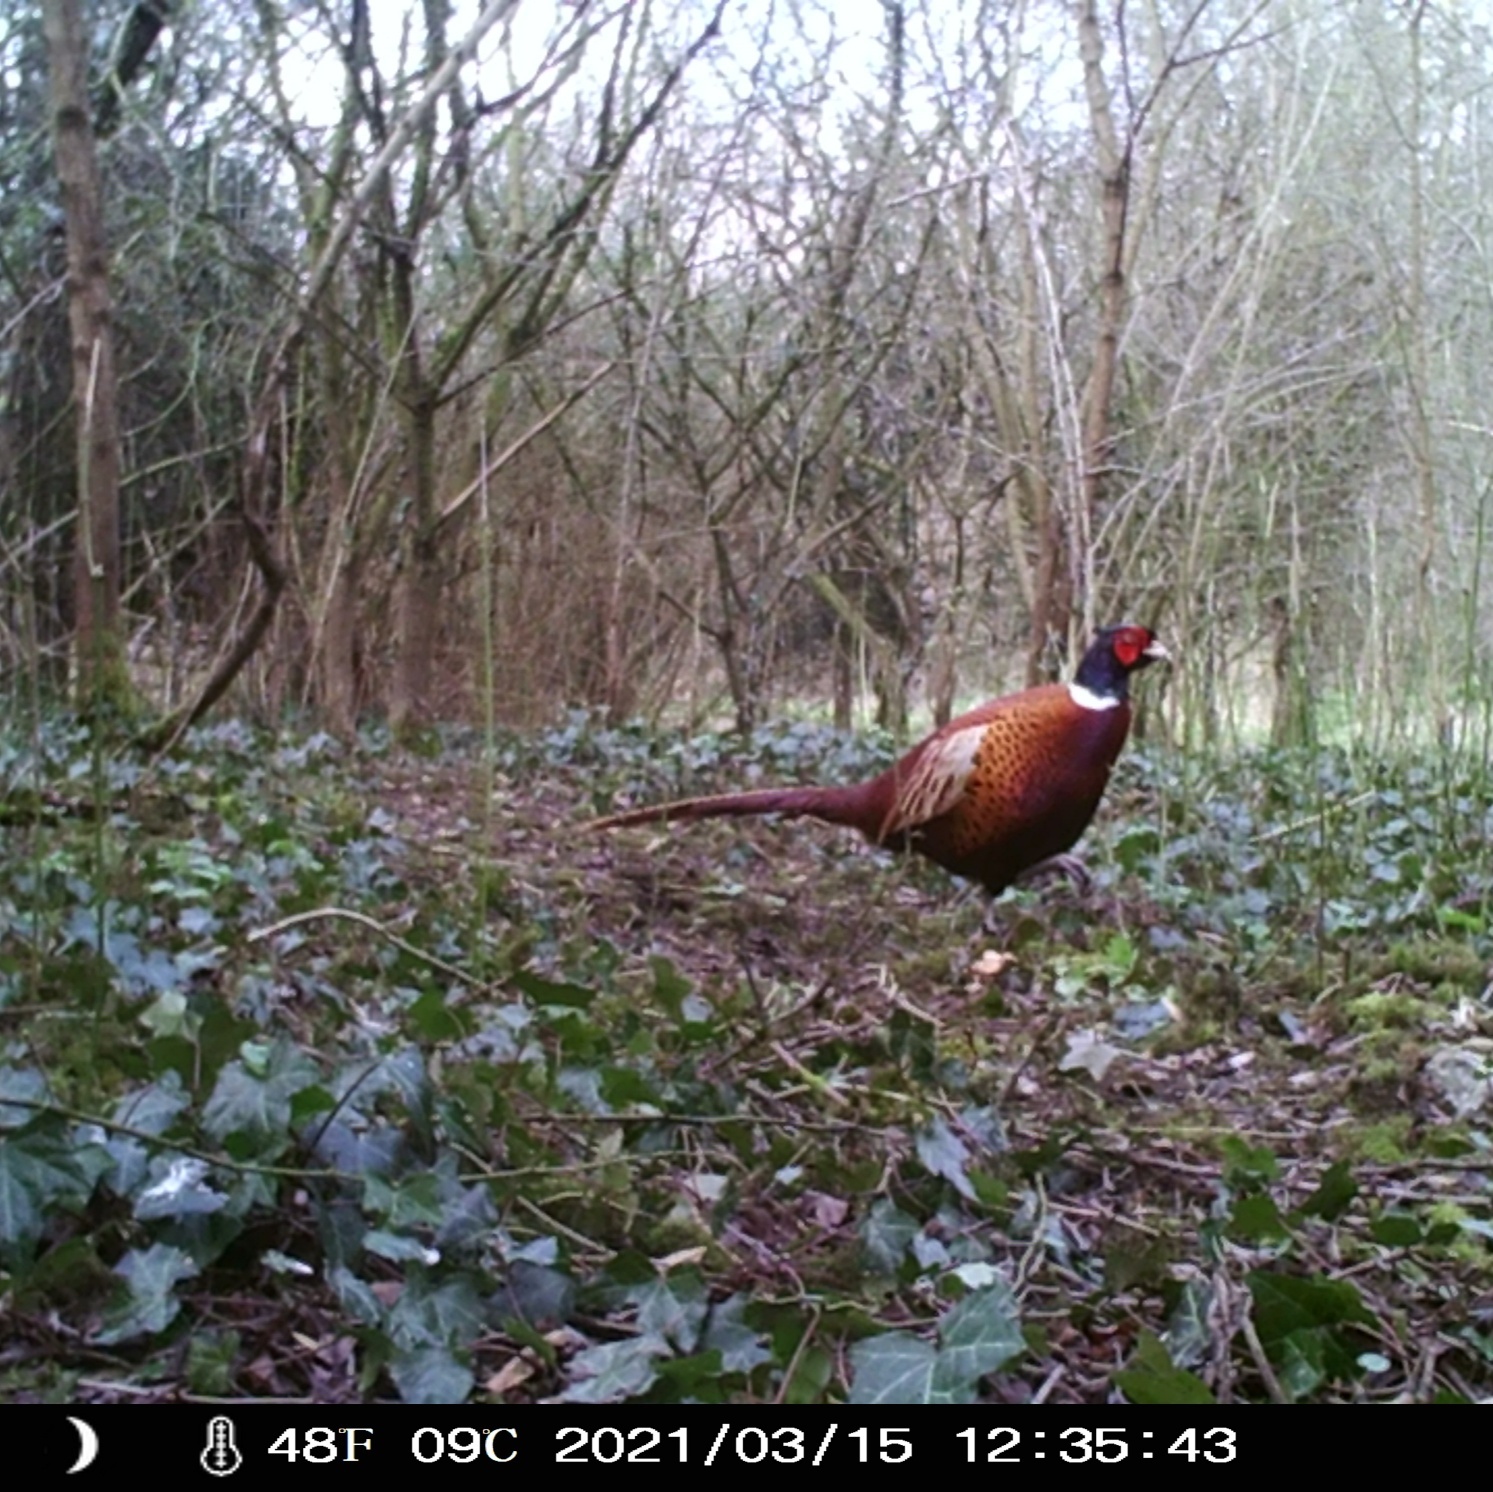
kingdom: Animalia
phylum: Chordata
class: Aves
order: Galliformes
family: Phasianidae
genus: Phasianus
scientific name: Phasianus colchicus
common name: Common pheasant
